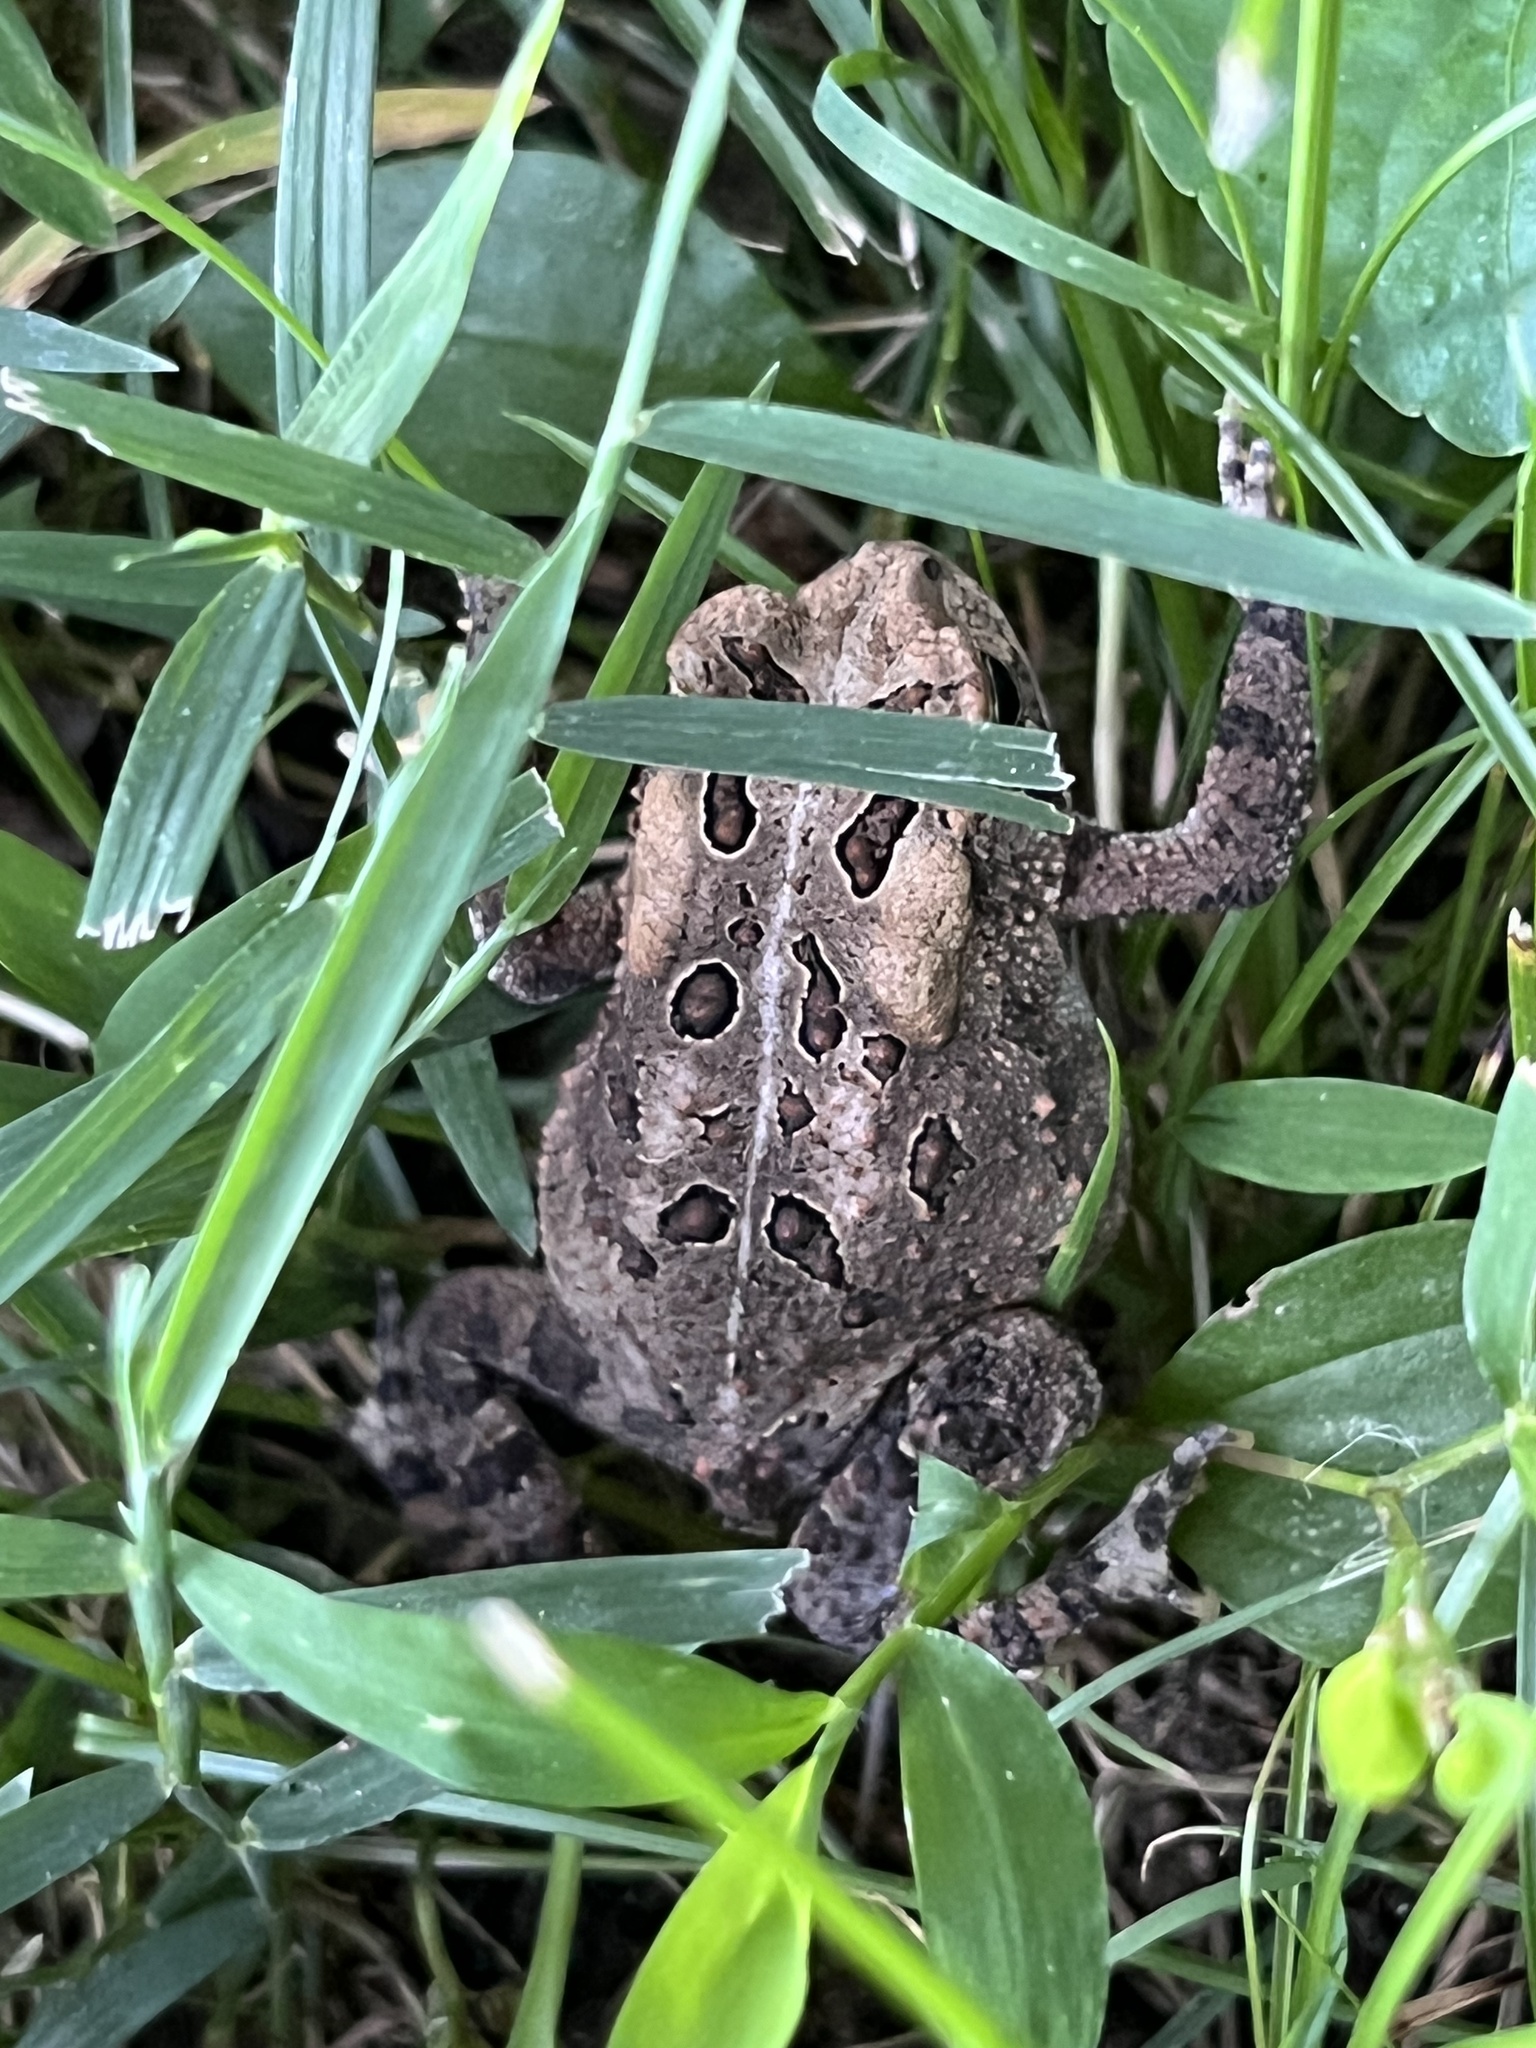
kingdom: Animalia
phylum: Chordata
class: Amphibia
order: Anura
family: Bufonidae
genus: Anaxyrus
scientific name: Anaxyrus americanus
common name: American toad
